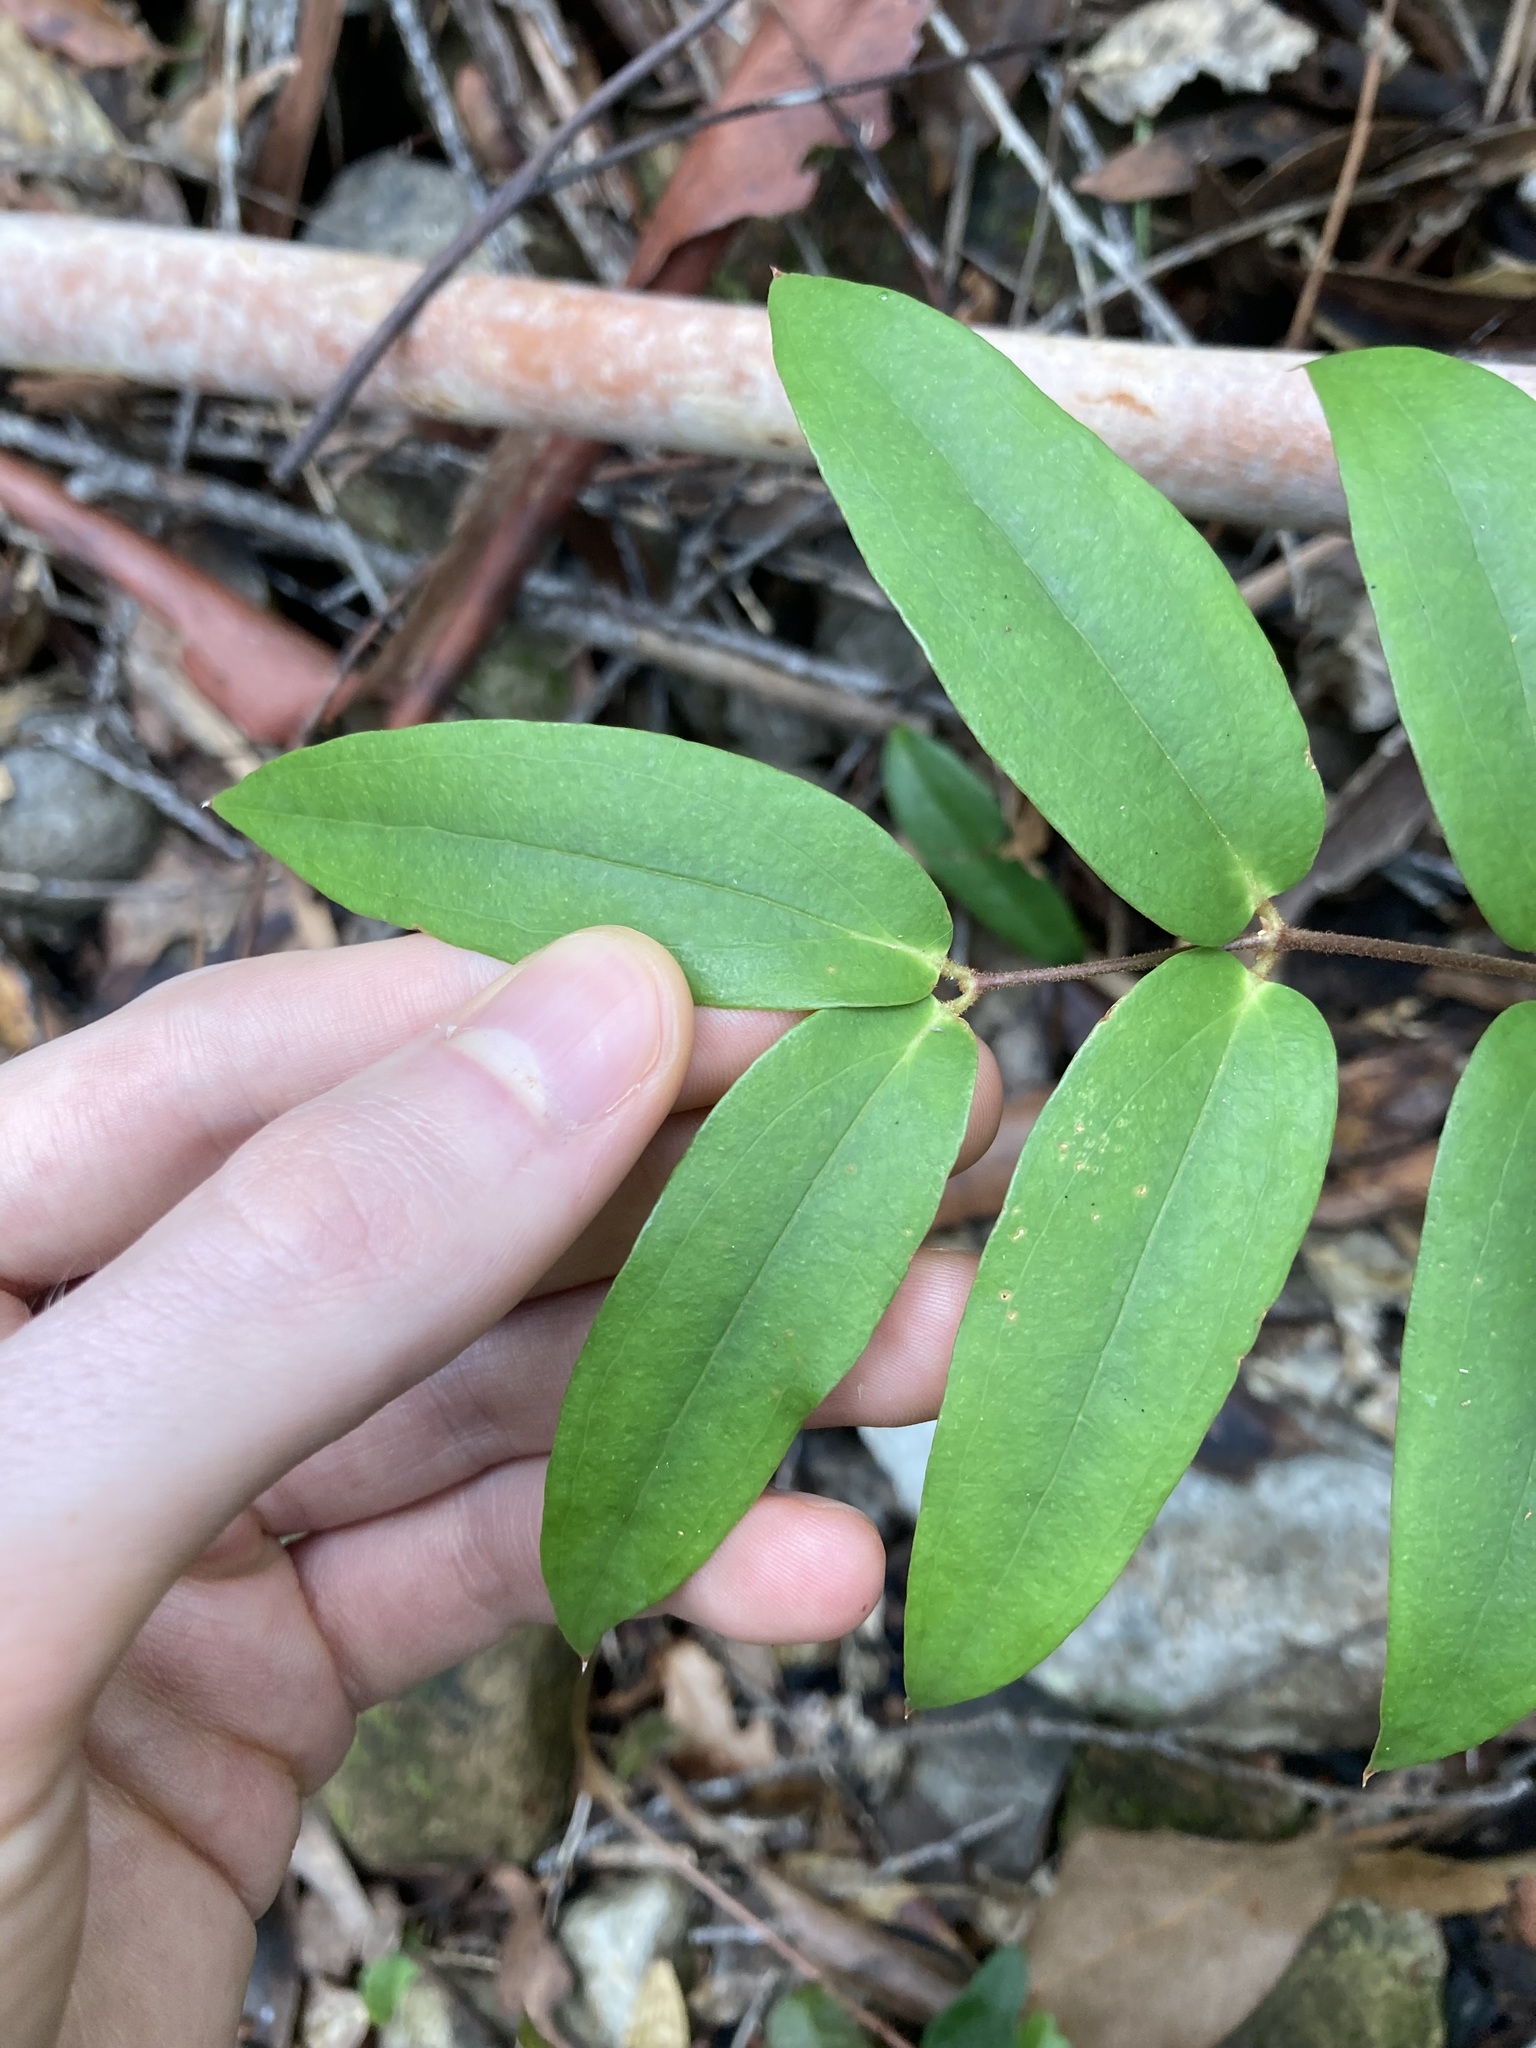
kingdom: Plantae
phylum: Tracheophyta
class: Liliopsida
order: Liliales
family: Ripogonaceae
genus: Ripogonum
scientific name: Ripogonum fawcettianum
